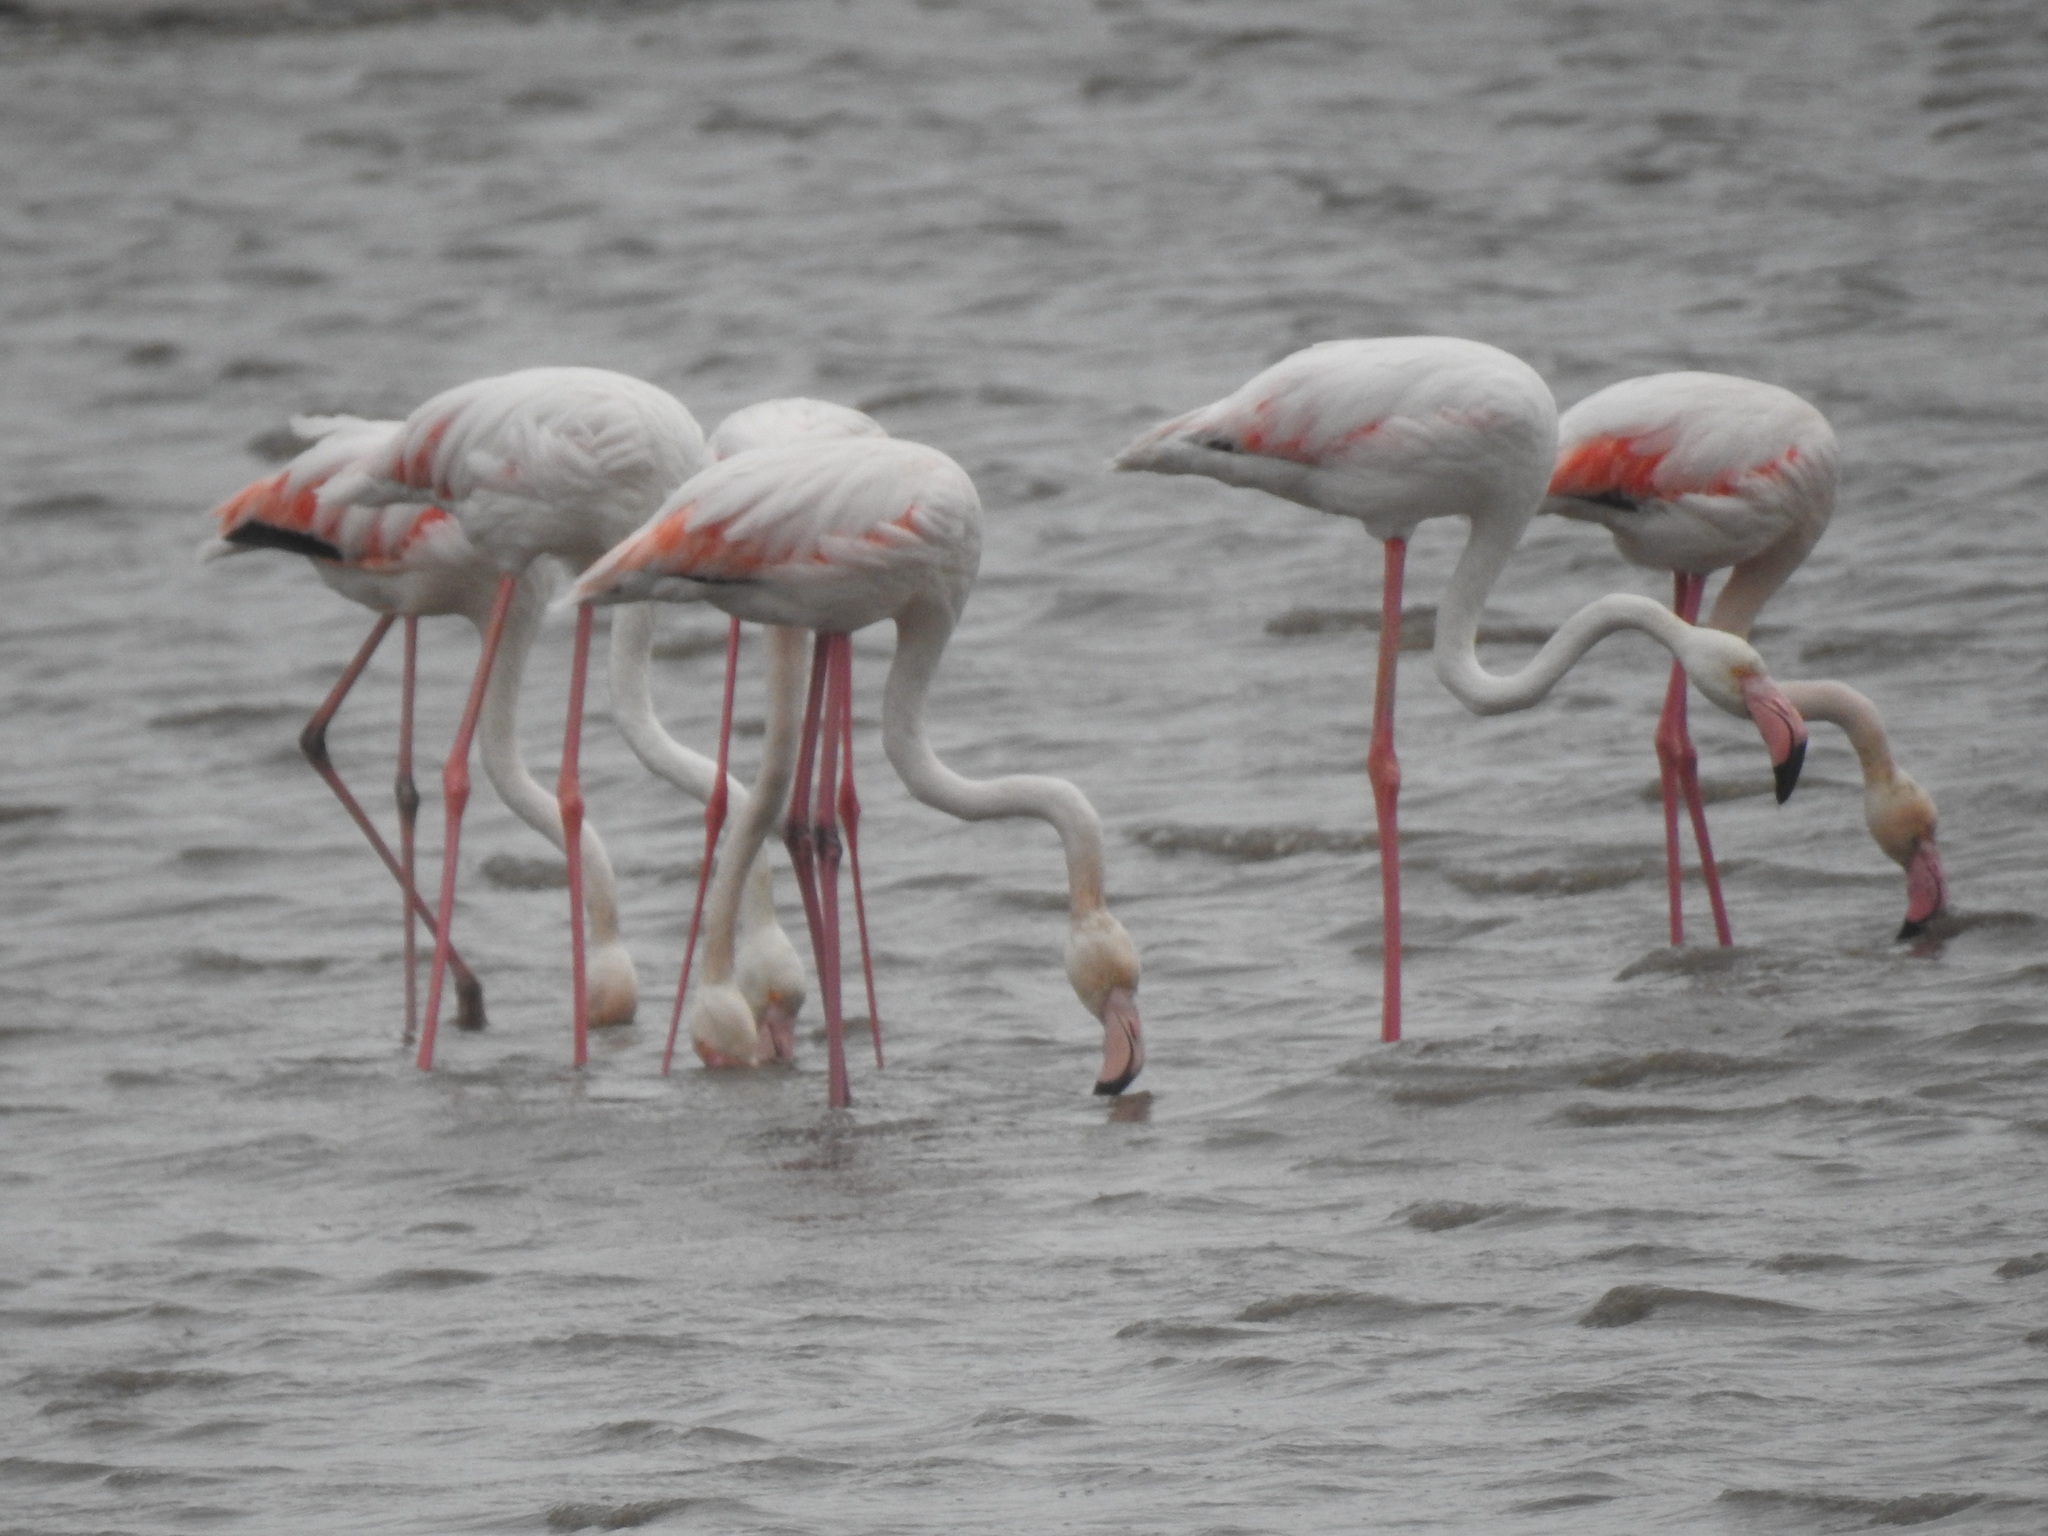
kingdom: Animalia
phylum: Chordata
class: Aves
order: Phoenicopteriformes
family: Phoenicopteridae
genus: Phoenicopterus
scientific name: Phoenicopterus roseus
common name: Greater flamingo
